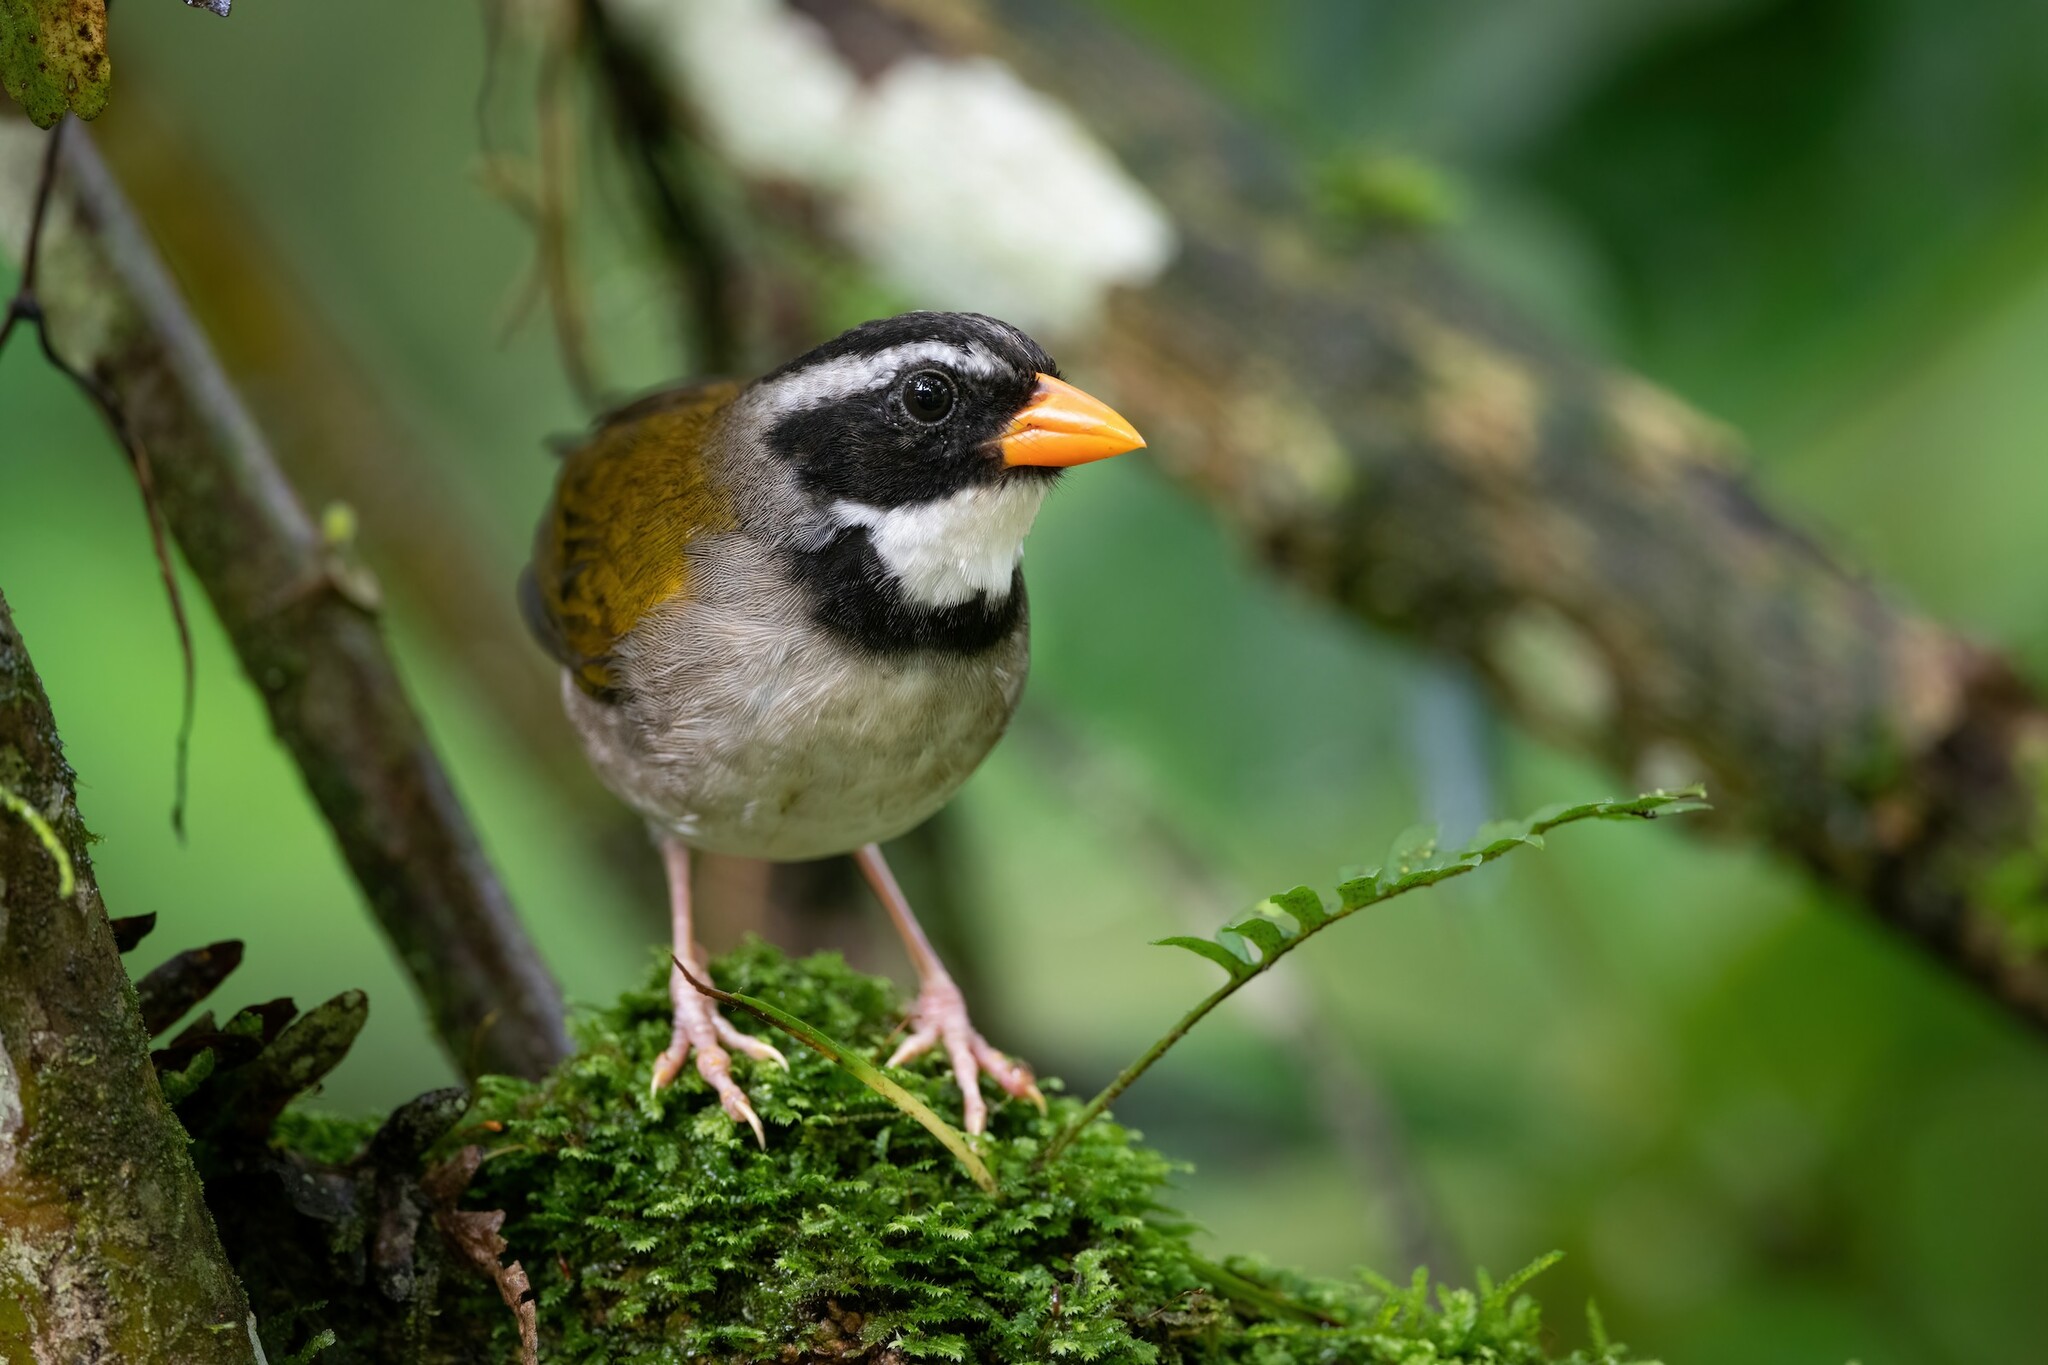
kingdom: Animalia
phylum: Chordata
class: Aves
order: Passeriformes
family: Passerellidae
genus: Arremon
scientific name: Arremon aurantiirostris
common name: Orange-billed sparrow
